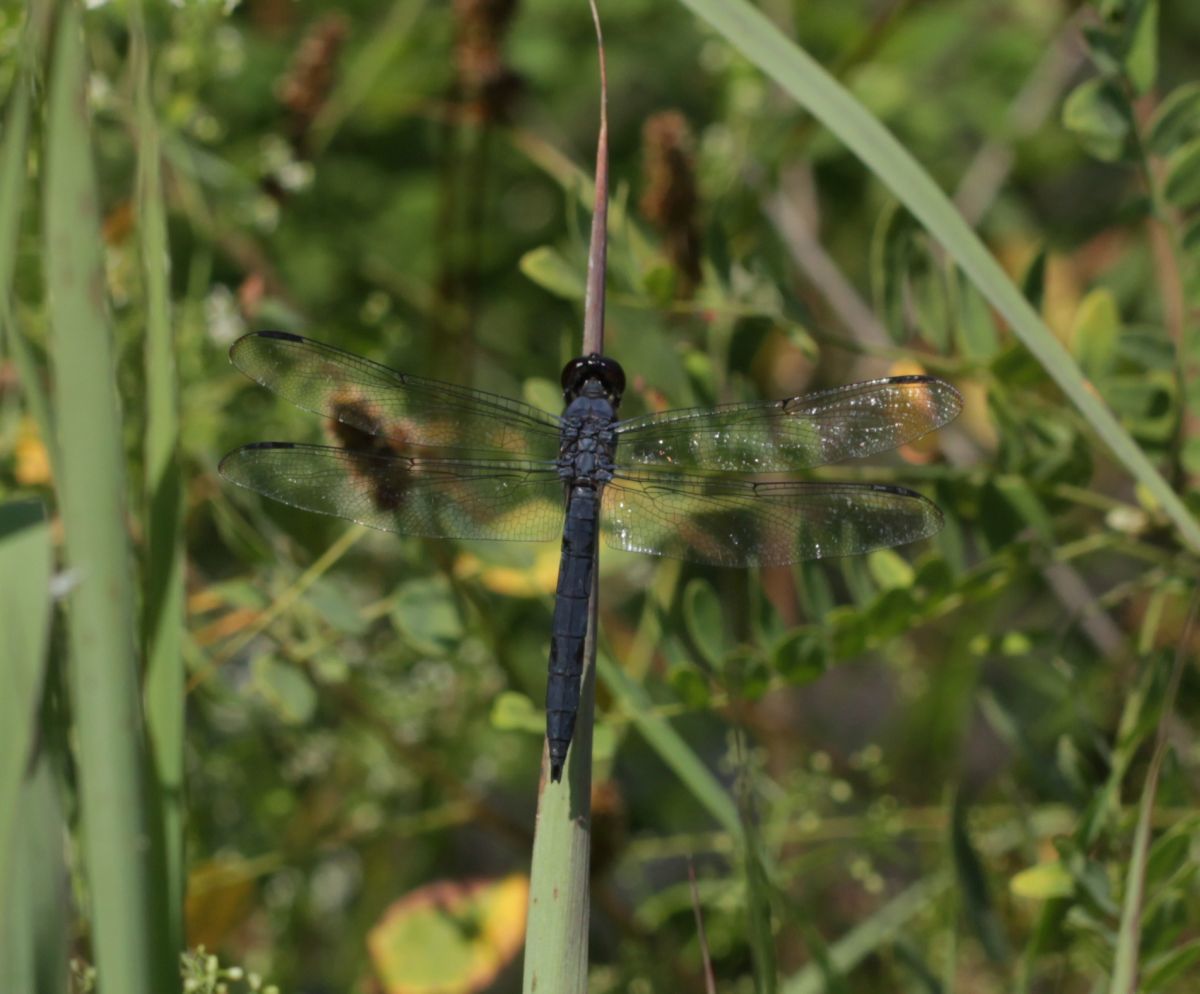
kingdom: Animalia
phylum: Arthropoda
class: Insecta
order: Odonata
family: Libellulidae
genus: Libellula
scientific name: Libellula incesta
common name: Slaty skimmer
